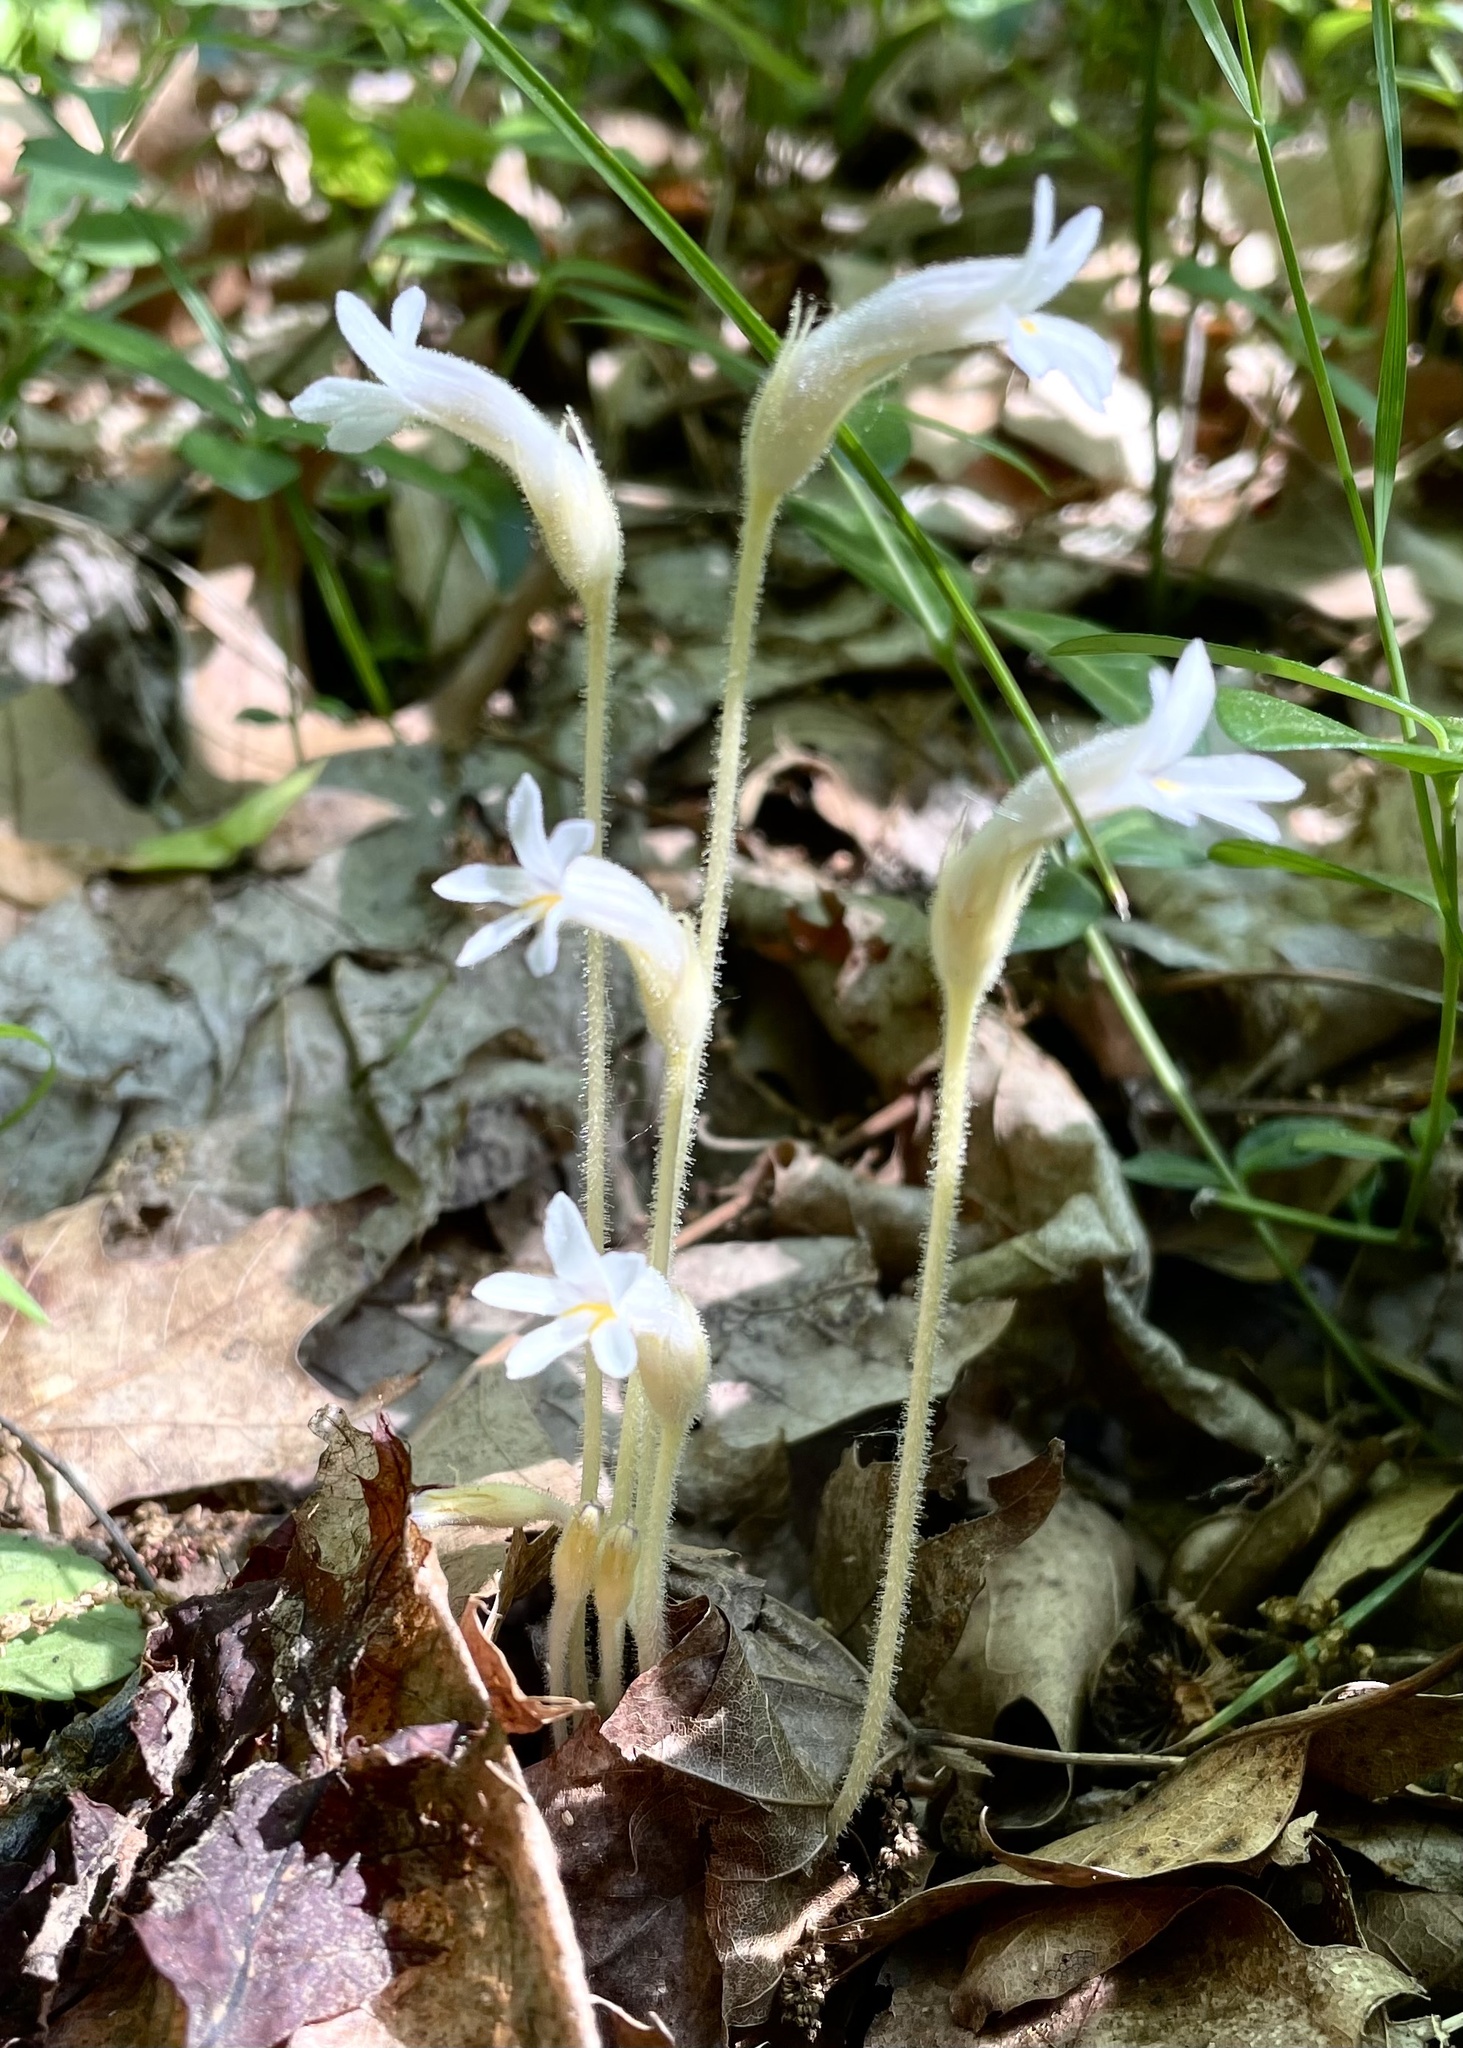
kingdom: Plantae
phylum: Tracheophyta
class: Magnoliopsida
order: Lamiales
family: Orobanchaceae
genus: Aphyllon
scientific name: Aphyllon uniflorum
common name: One-flowered broomrape
